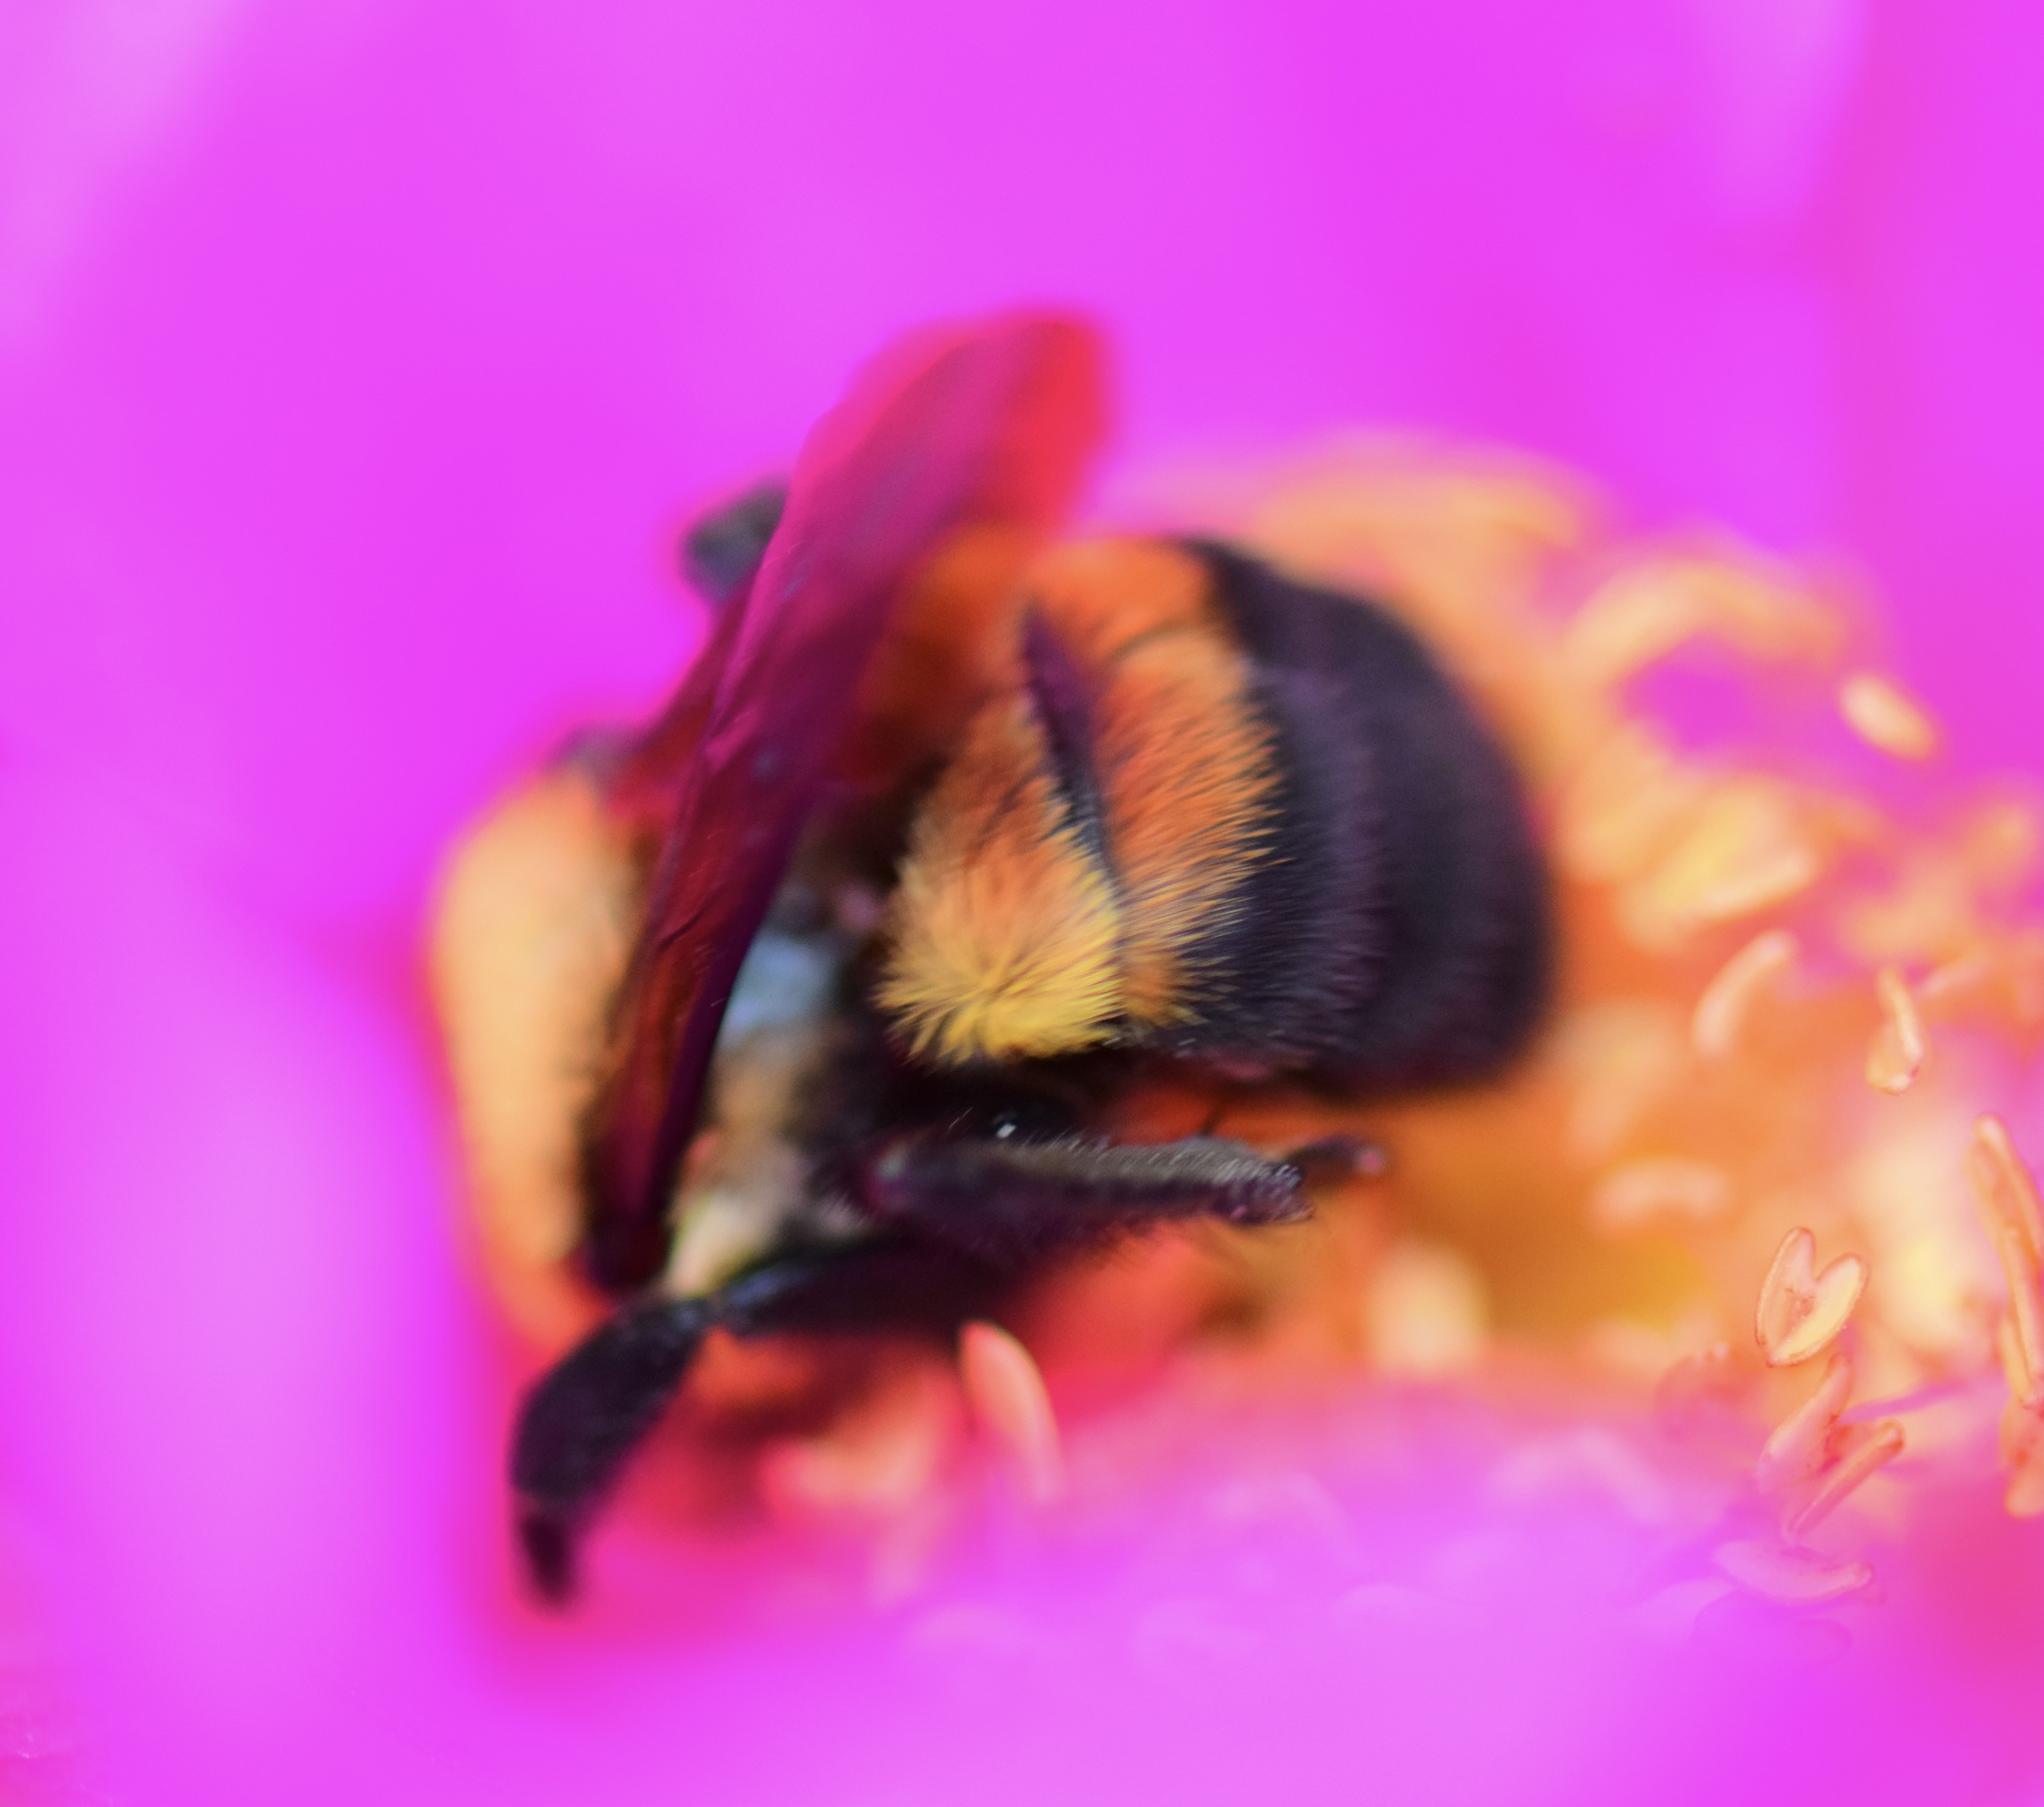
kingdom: Animalia
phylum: Arthropoda
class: Insecta
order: Hymenoptera
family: Apidae
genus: Bombus
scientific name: Bombus griseocollis
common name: Brown-belted bumble bee
